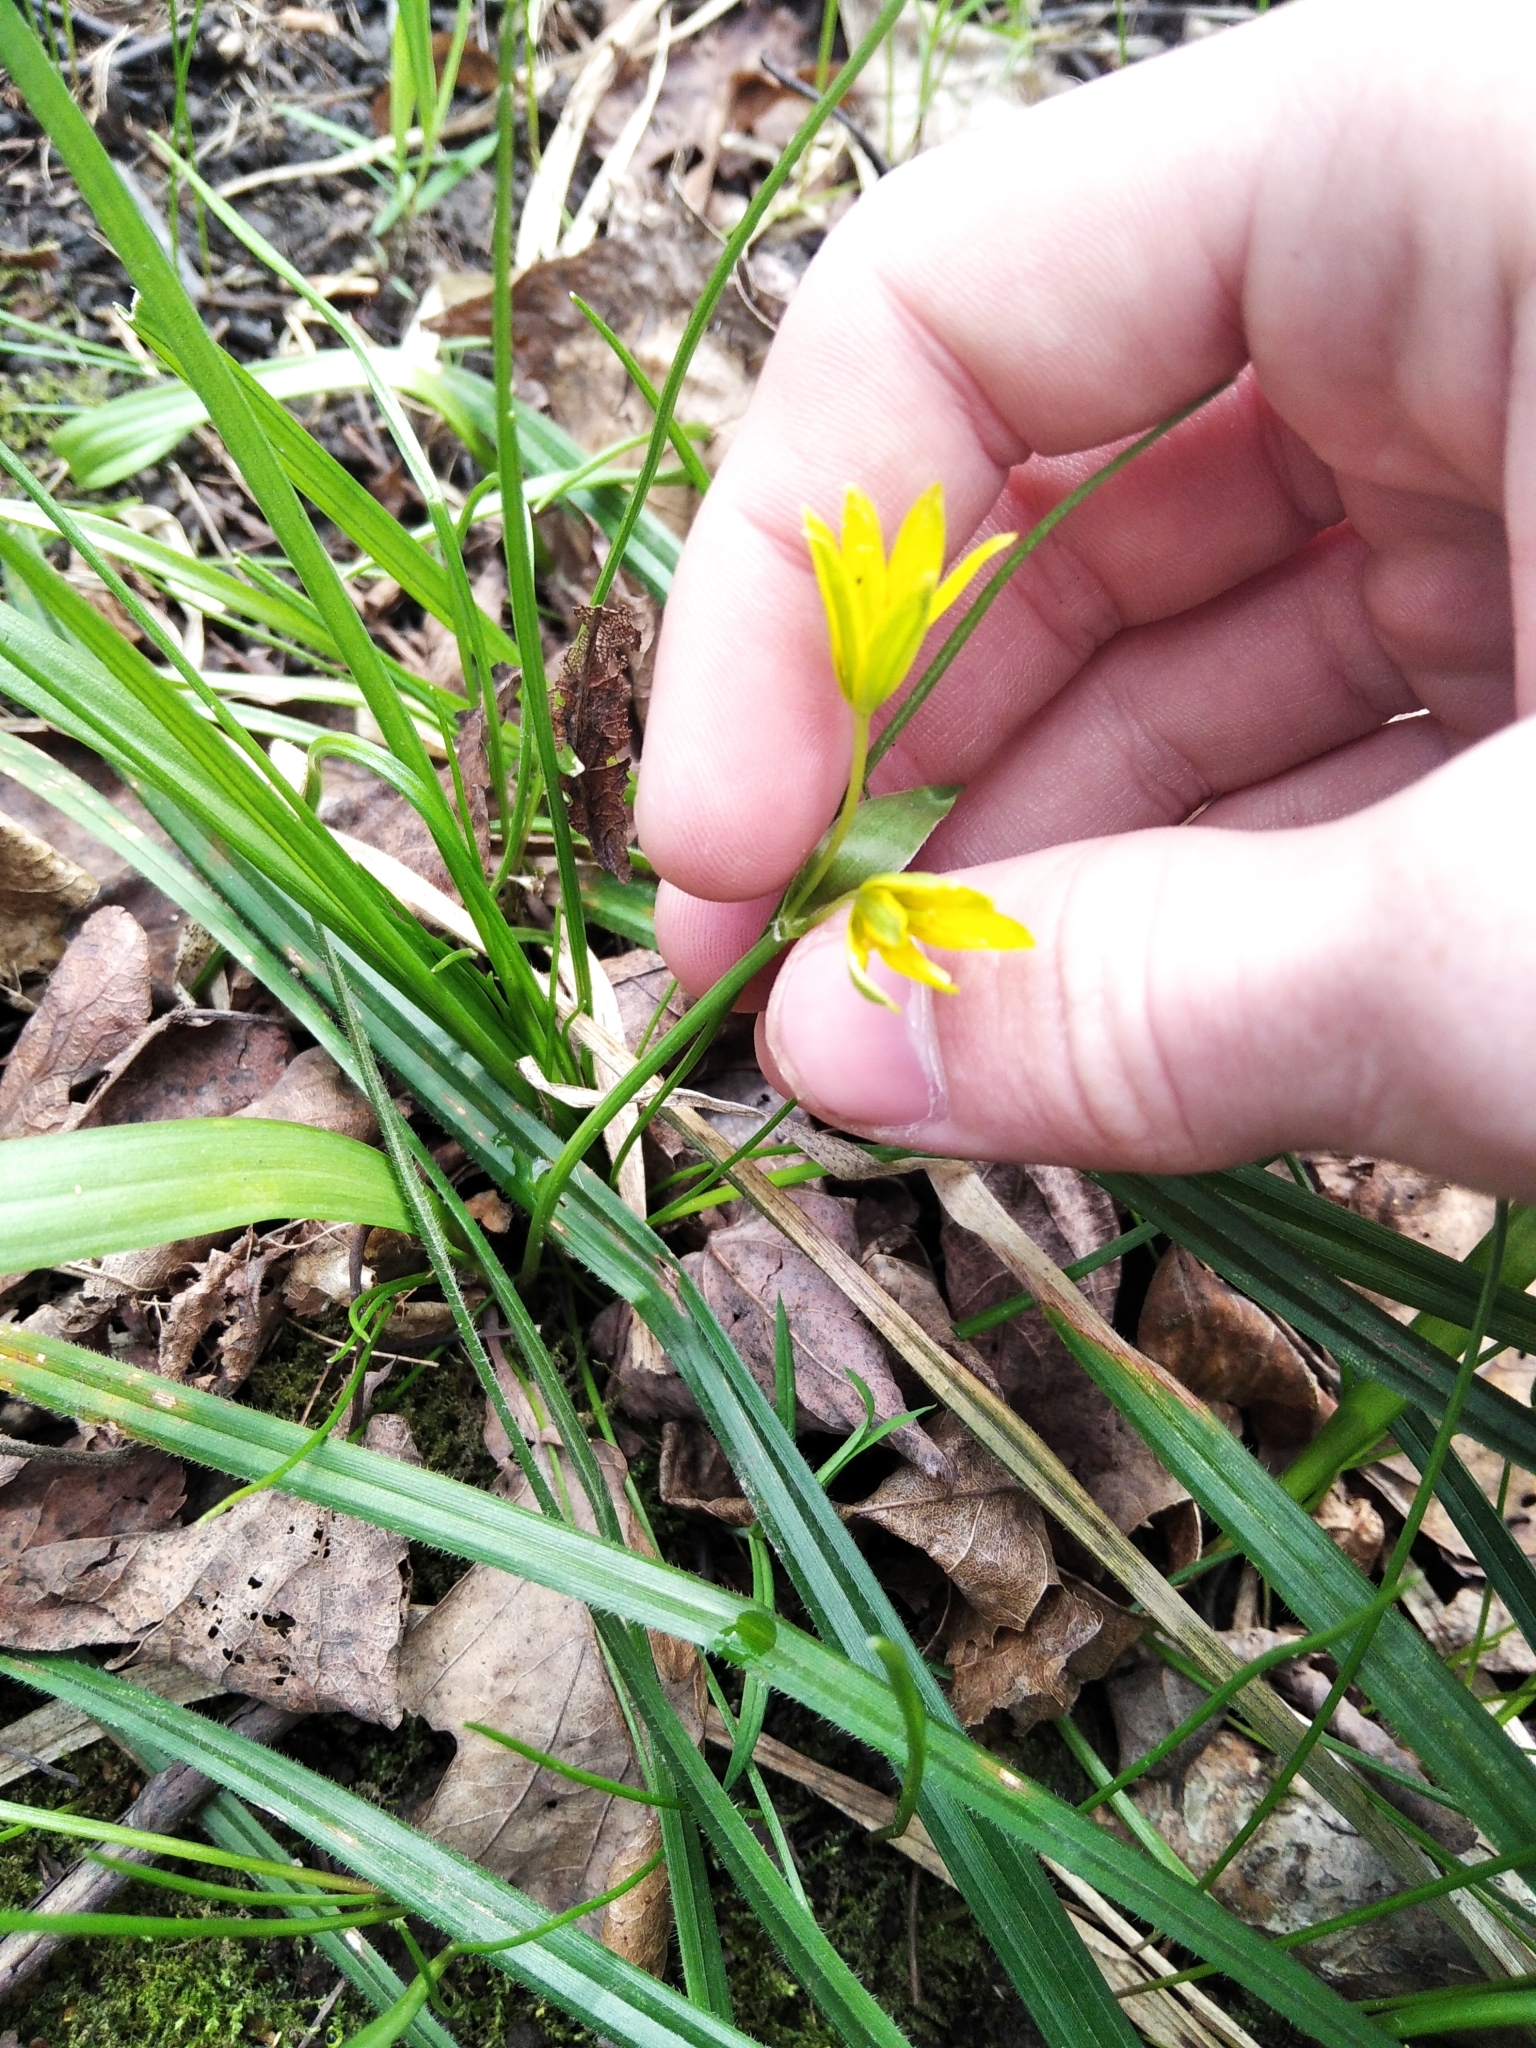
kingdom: Plantae
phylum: Tracheophyta
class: Liliopsida
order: Liliales
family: Liliaceae
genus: Gagea
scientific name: Gagea lutea
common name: Yellow star-of-bethlehem
